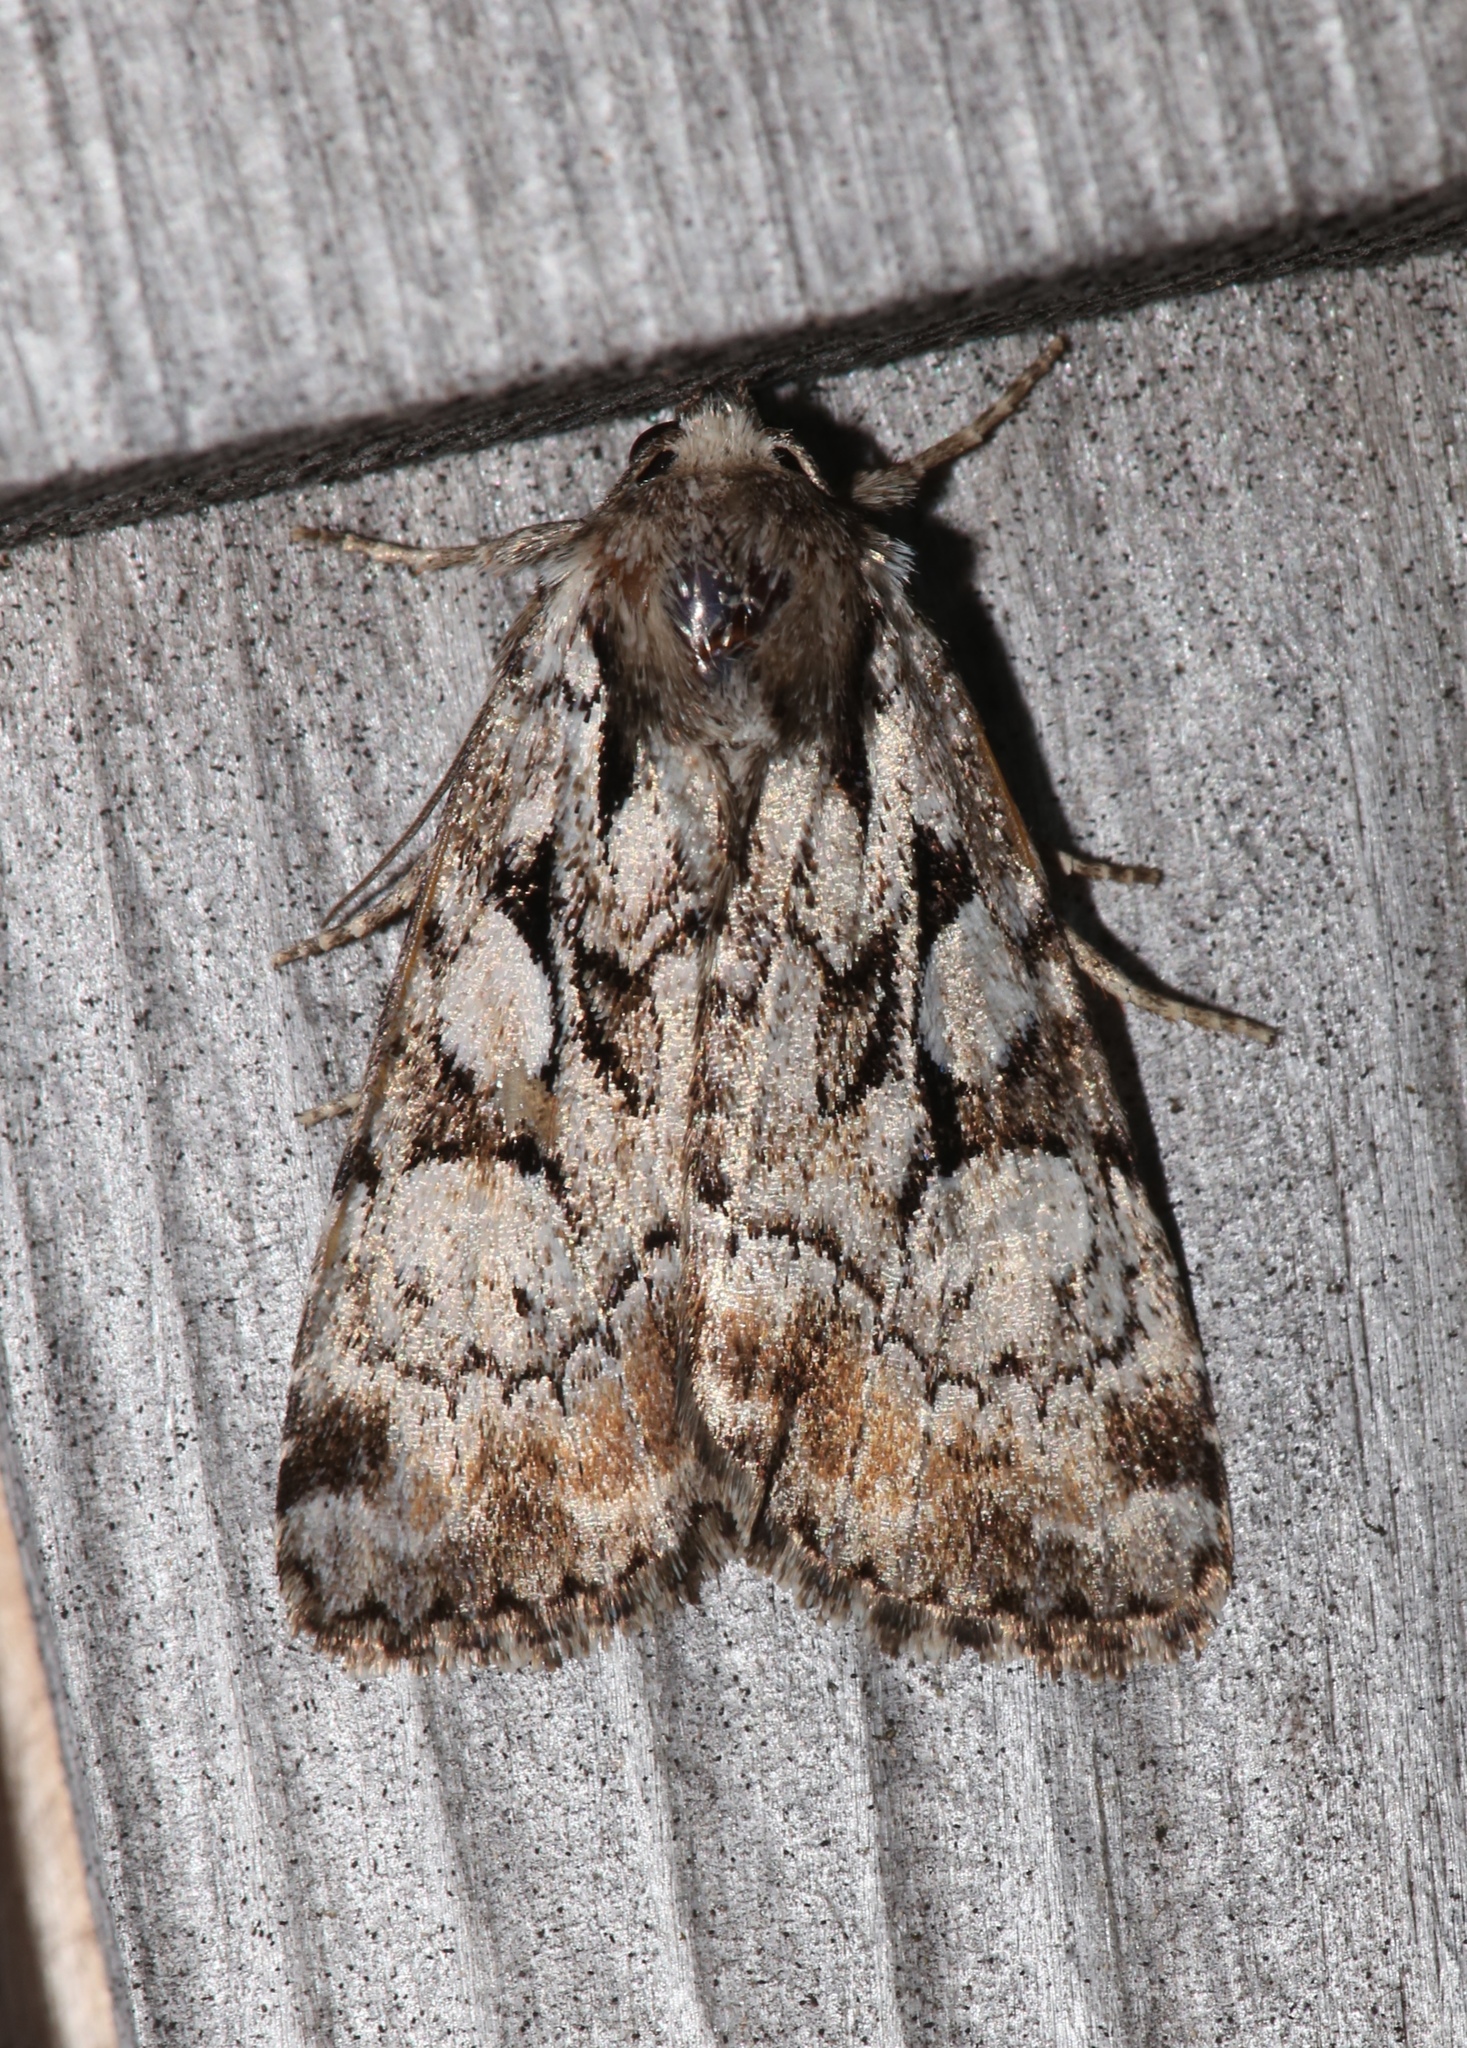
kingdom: Animalia
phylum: Arthropoda
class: Insecta
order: Lepidoptera
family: Noctuidae
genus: Aplectoides
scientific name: Aplectoides condita
